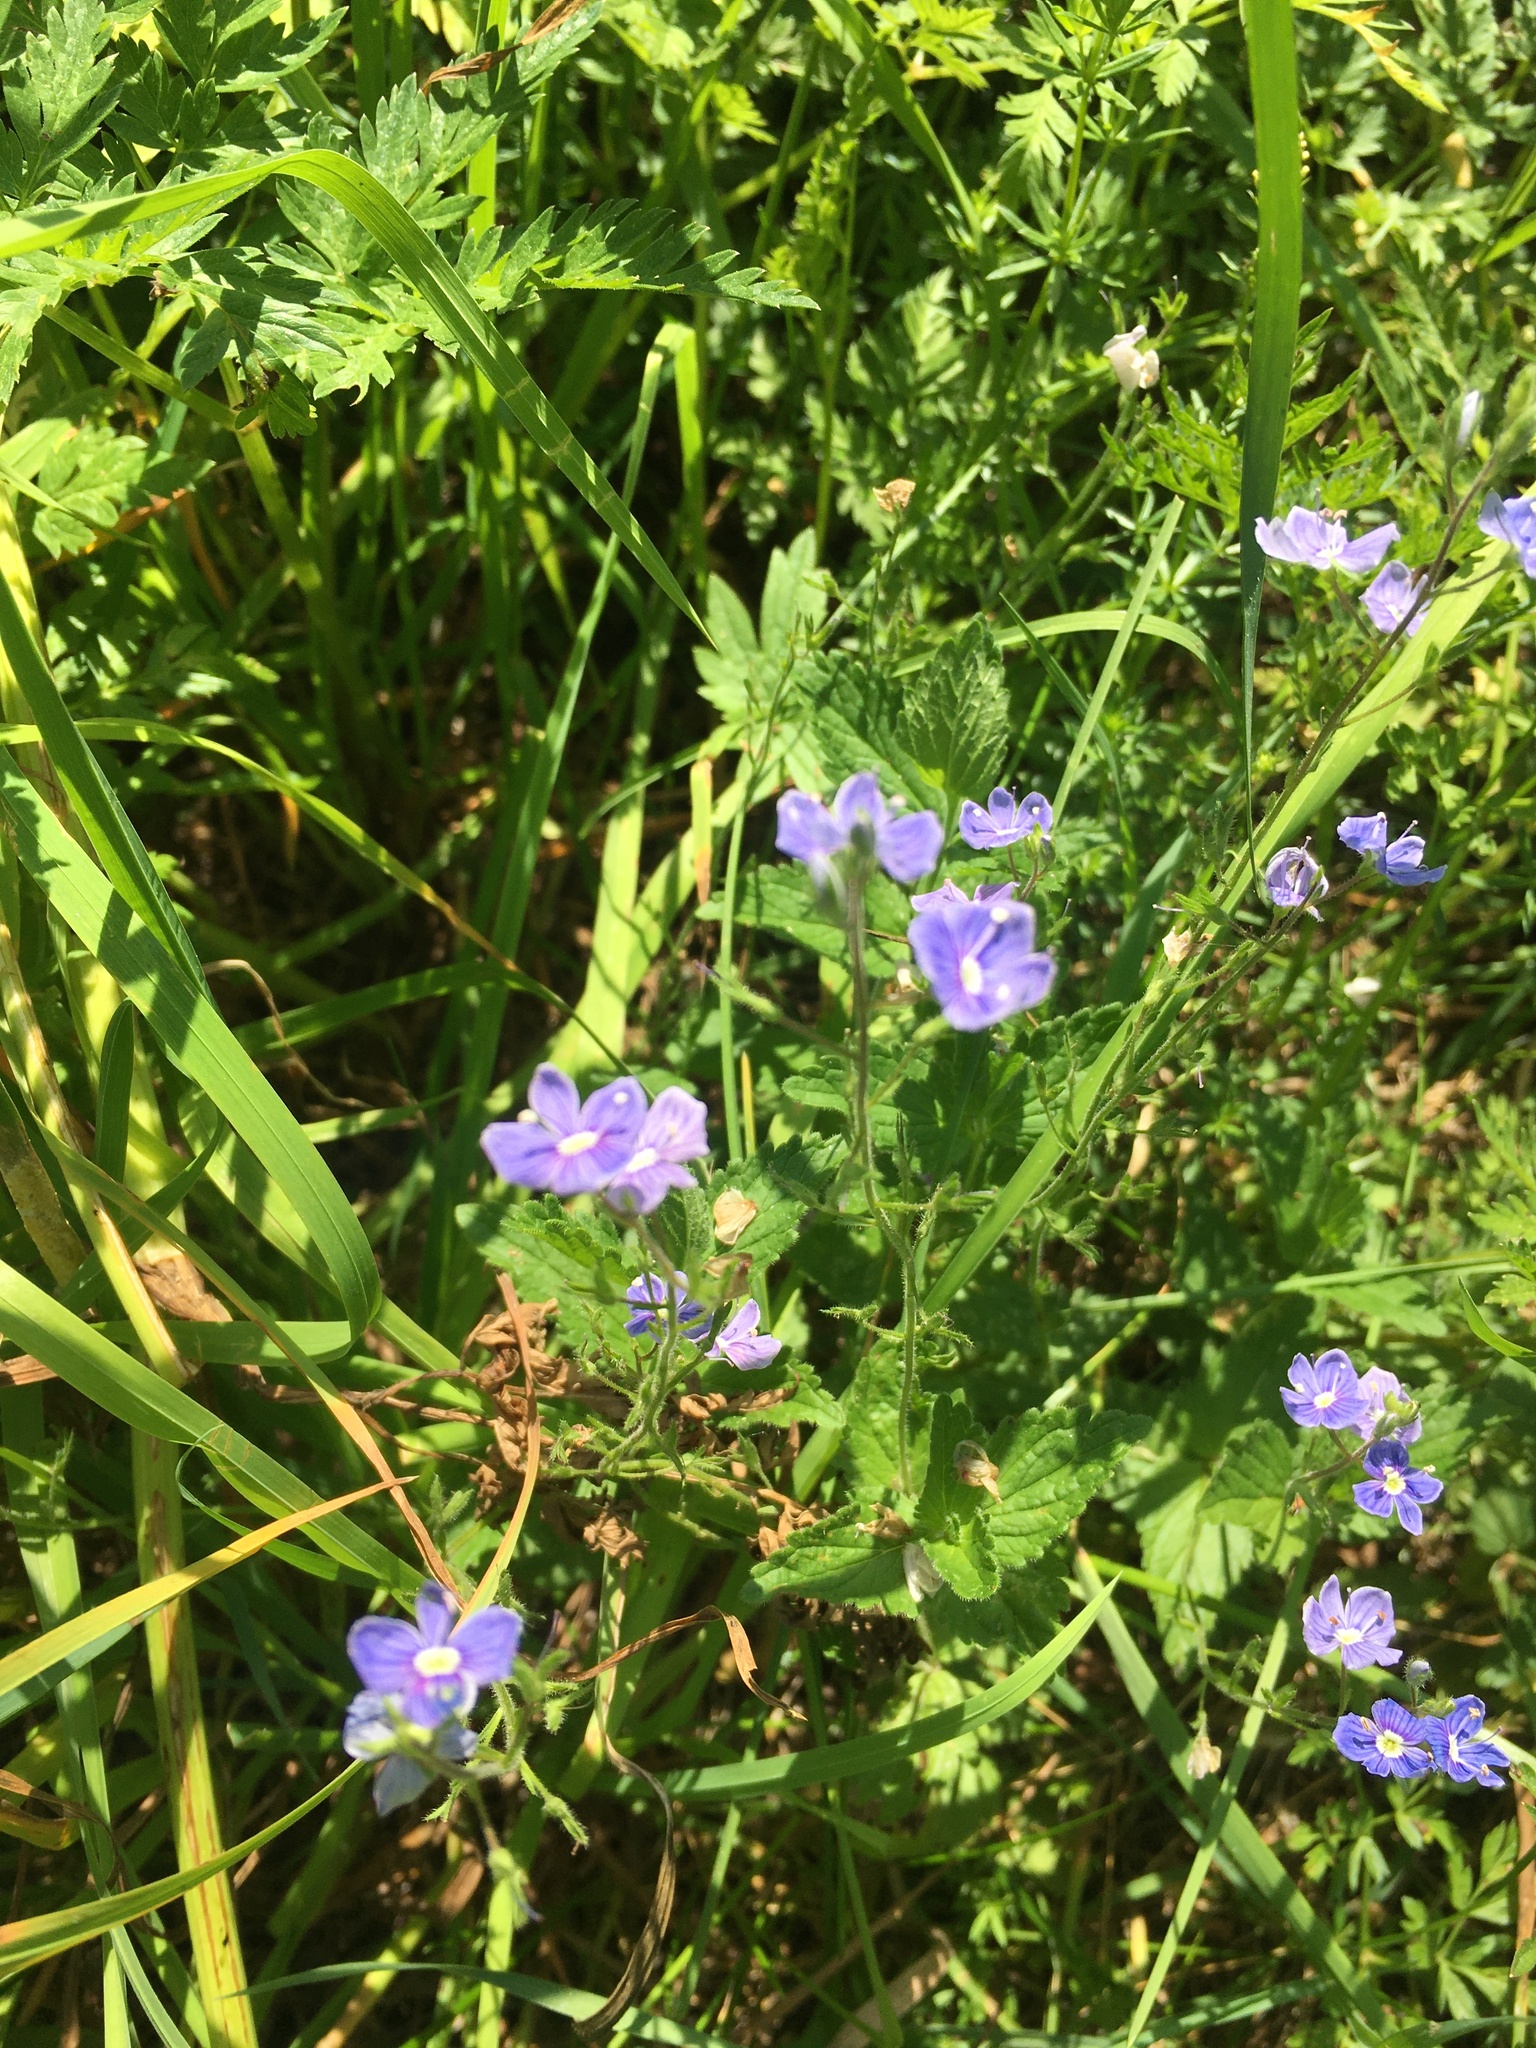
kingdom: Plantae
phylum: Tracheophyta
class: Magnoliopsida
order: Lamiales
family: Plantaginaceae
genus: Veronica
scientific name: Veronica chamaedrys
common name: Germander speedwell
